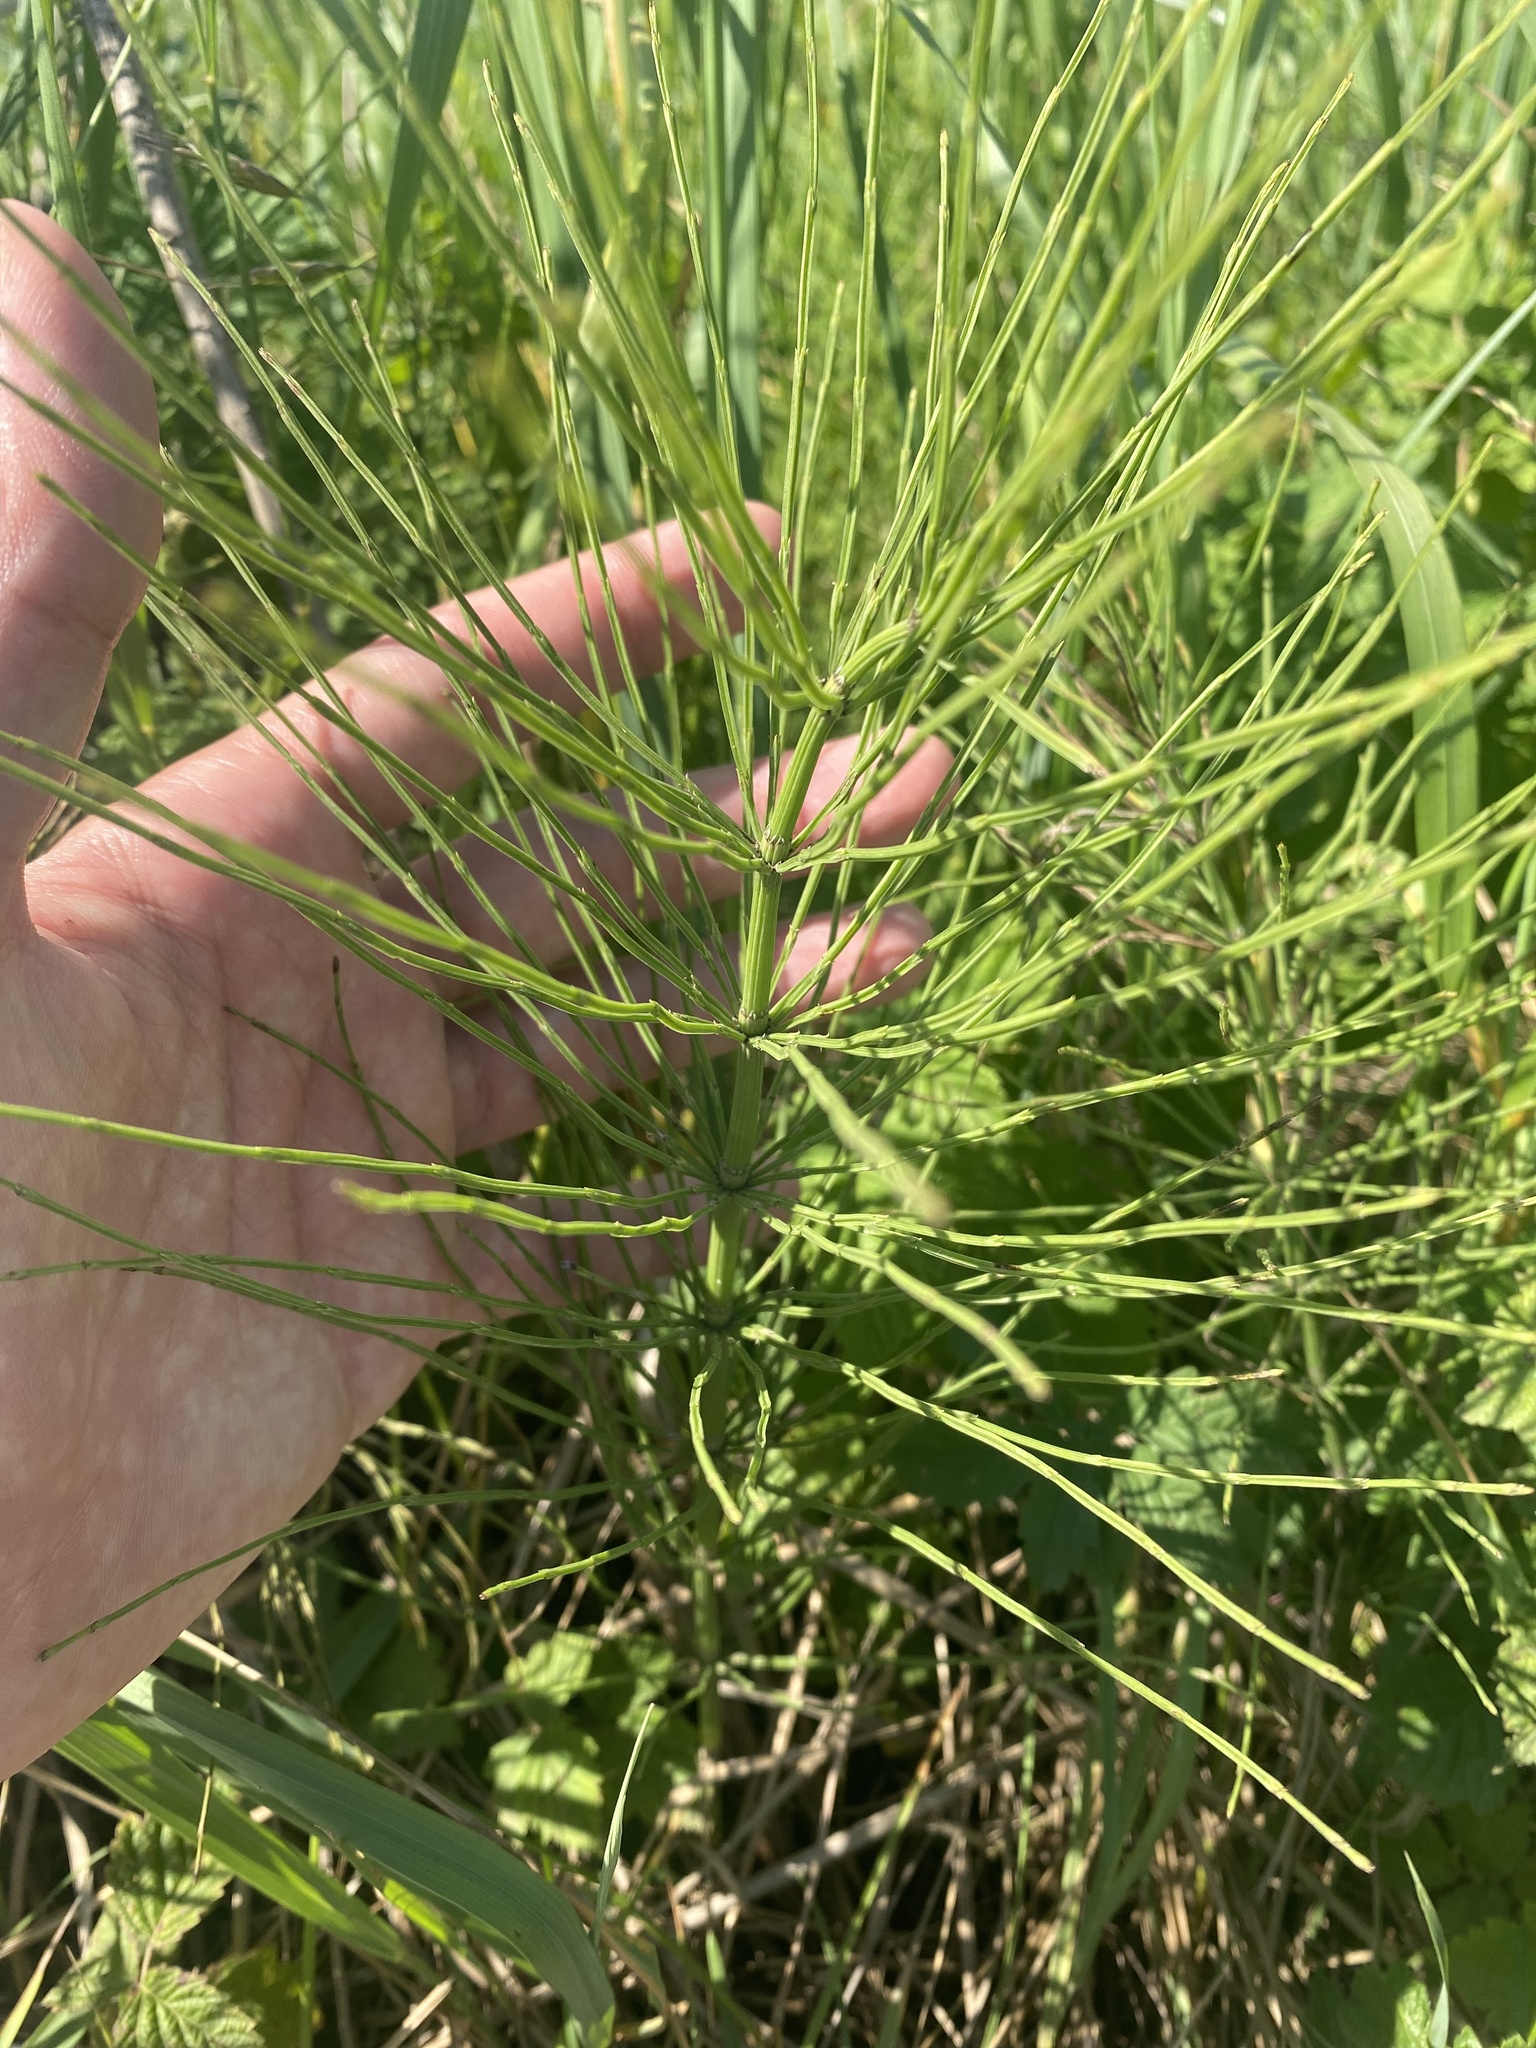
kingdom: Plantae
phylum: Tracheophyta
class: Polypodiopsida
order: Equisetales
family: Equisetaceae
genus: Equisetum
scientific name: Equisetum arvense
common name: Field horsetail
